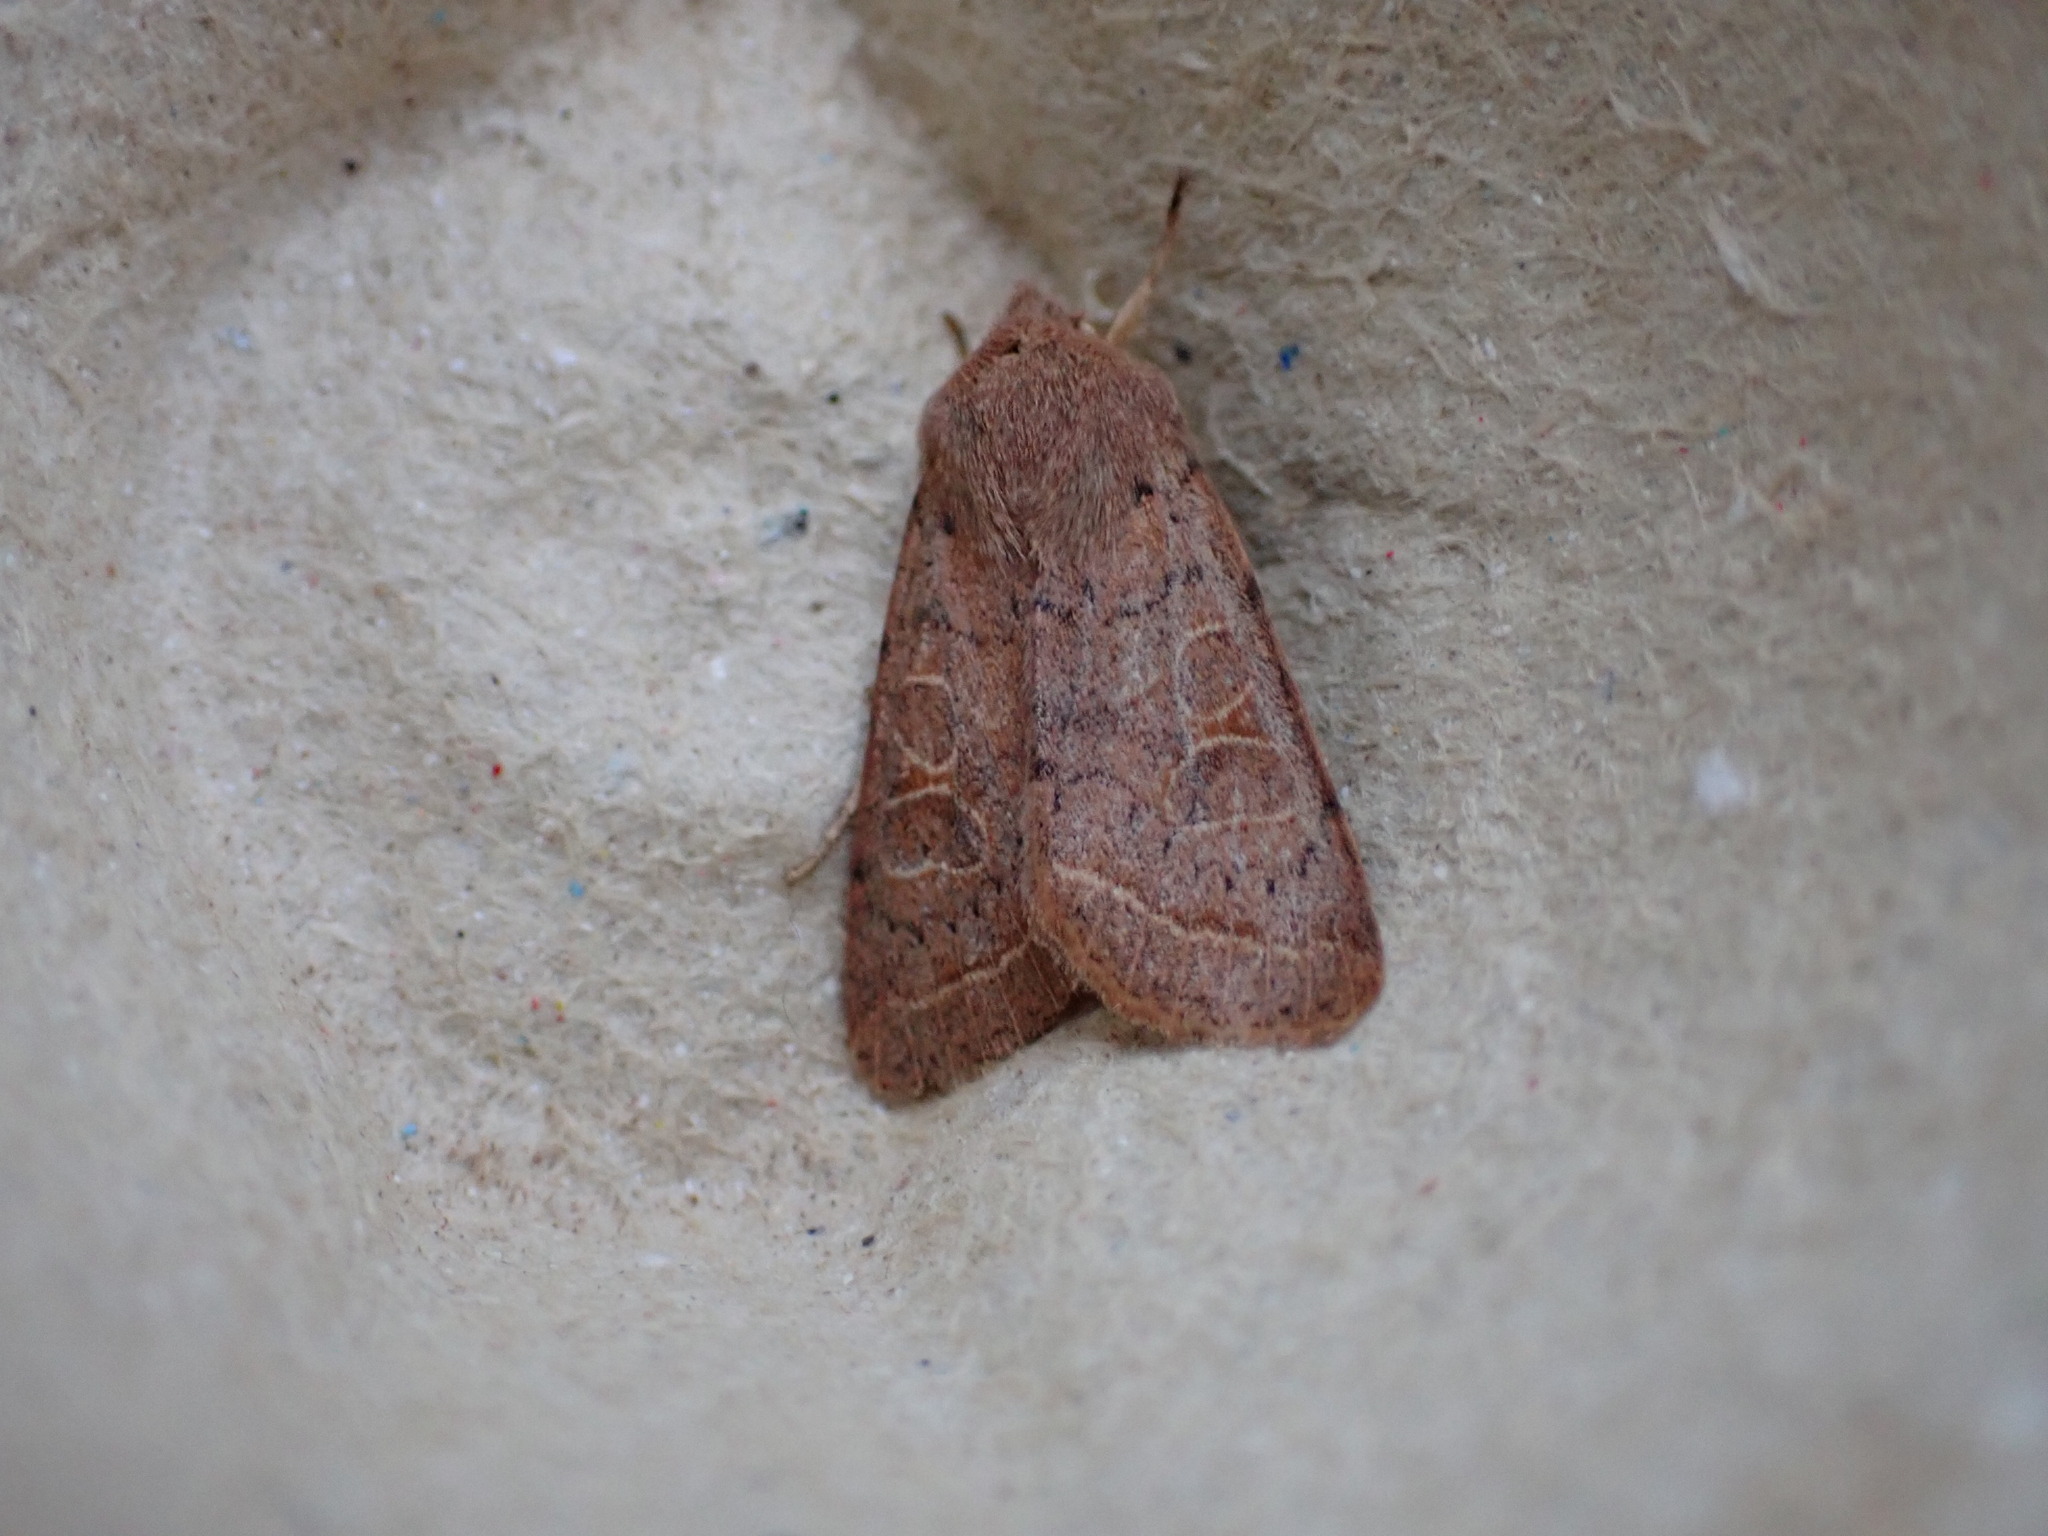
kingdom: Animalia
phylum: Arthropoda
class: Insecta
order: Lepidoptera
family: Noctuidae
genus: Orthosia
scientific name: Orthosia cerasi
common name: Common quaker
